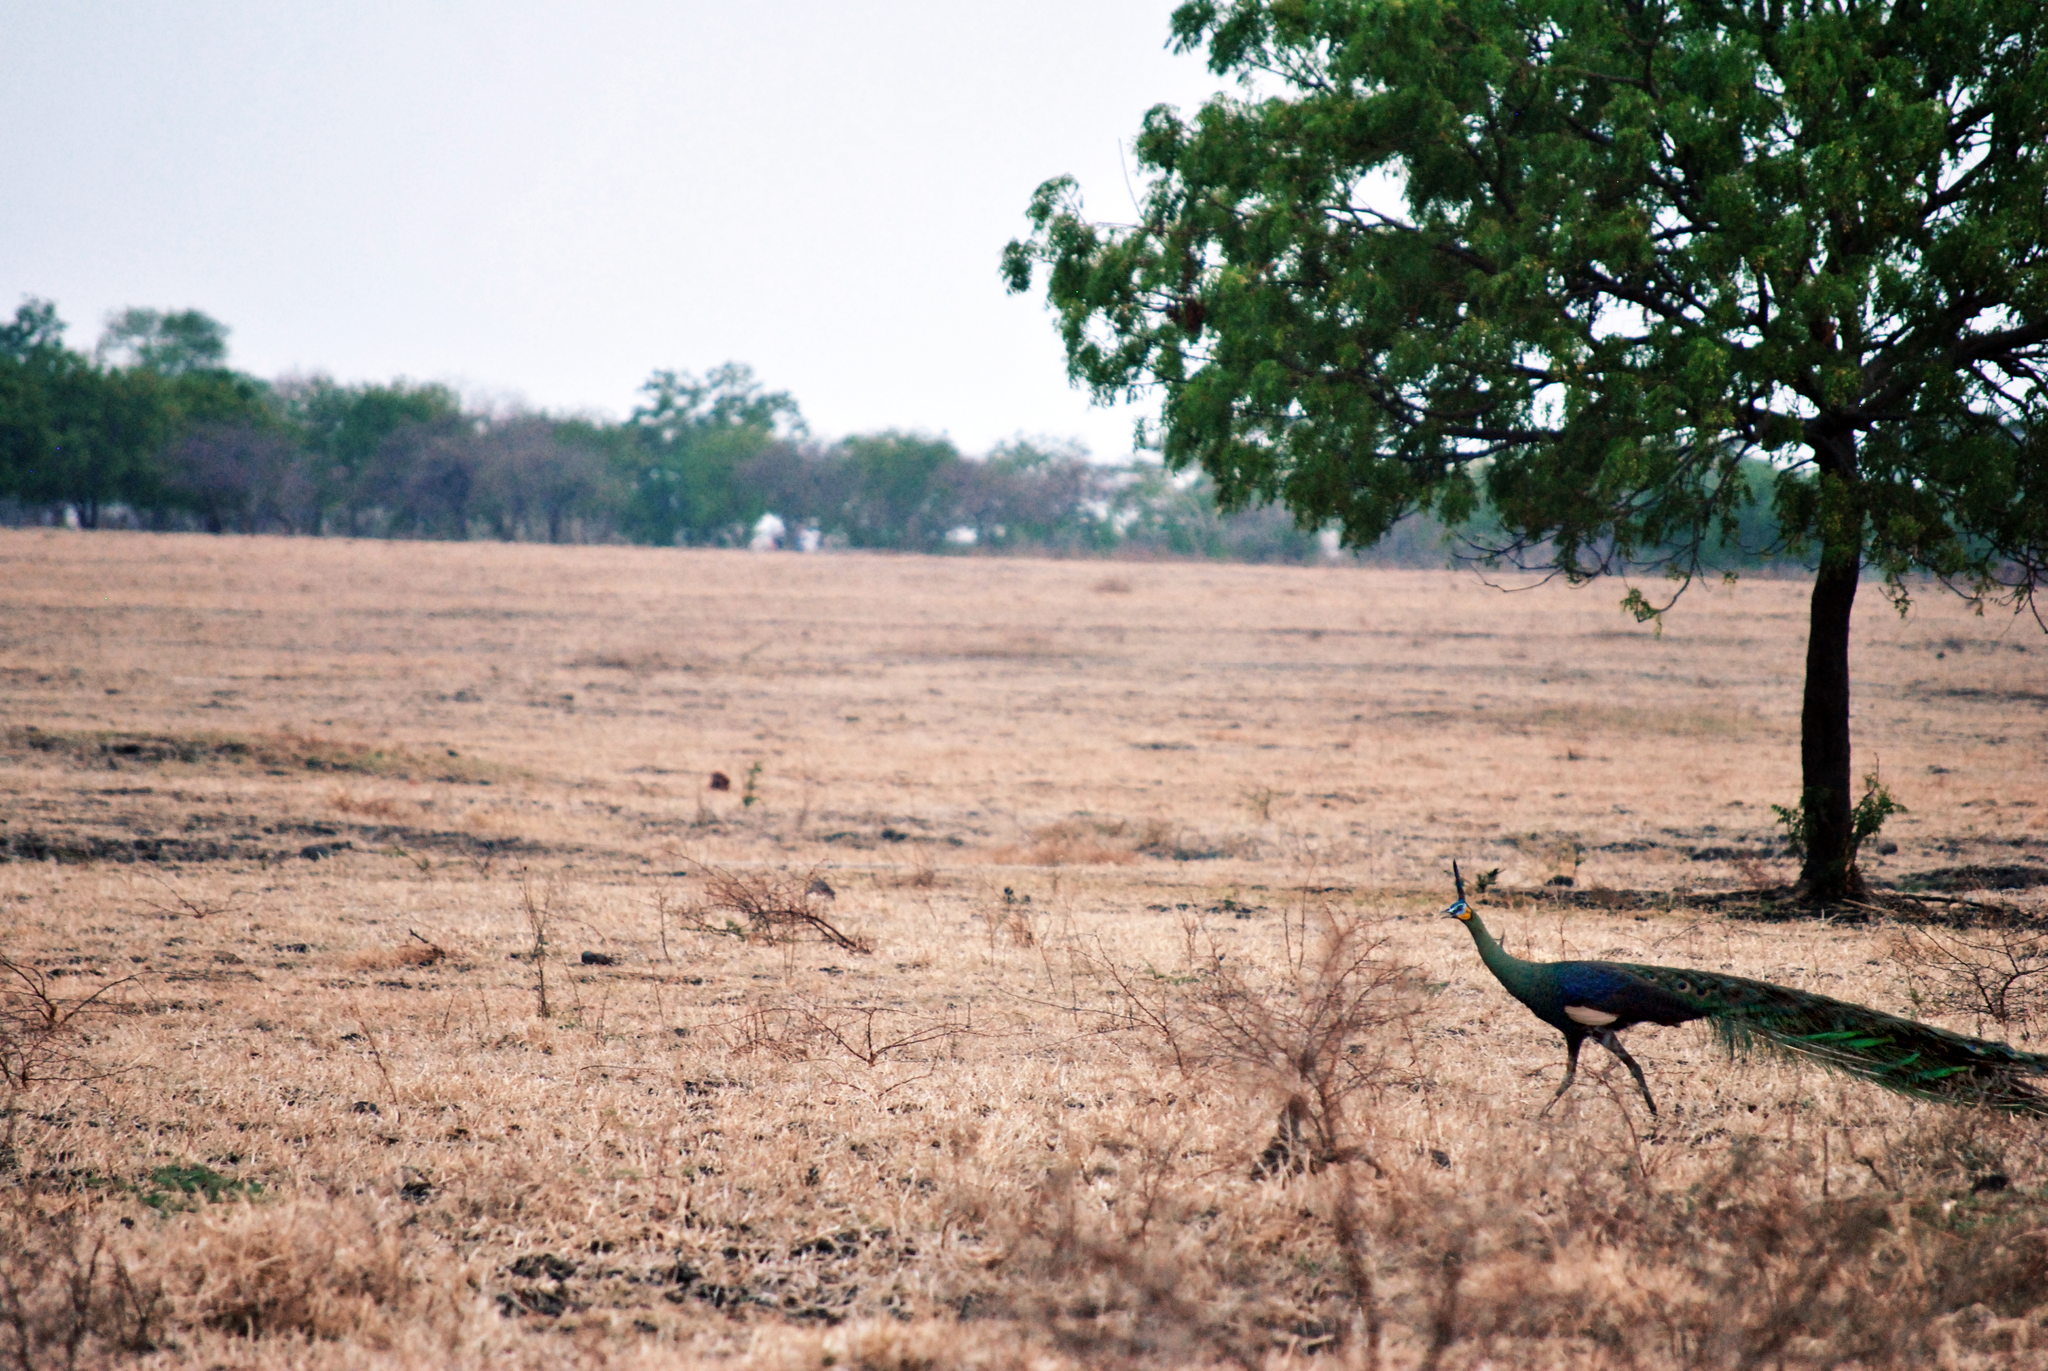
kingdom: Animalia
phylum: Chordata
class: Aves
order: Galliformes
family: Phasianidae
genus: Pavo
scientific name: Pavo muticus
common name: Green peafowl
